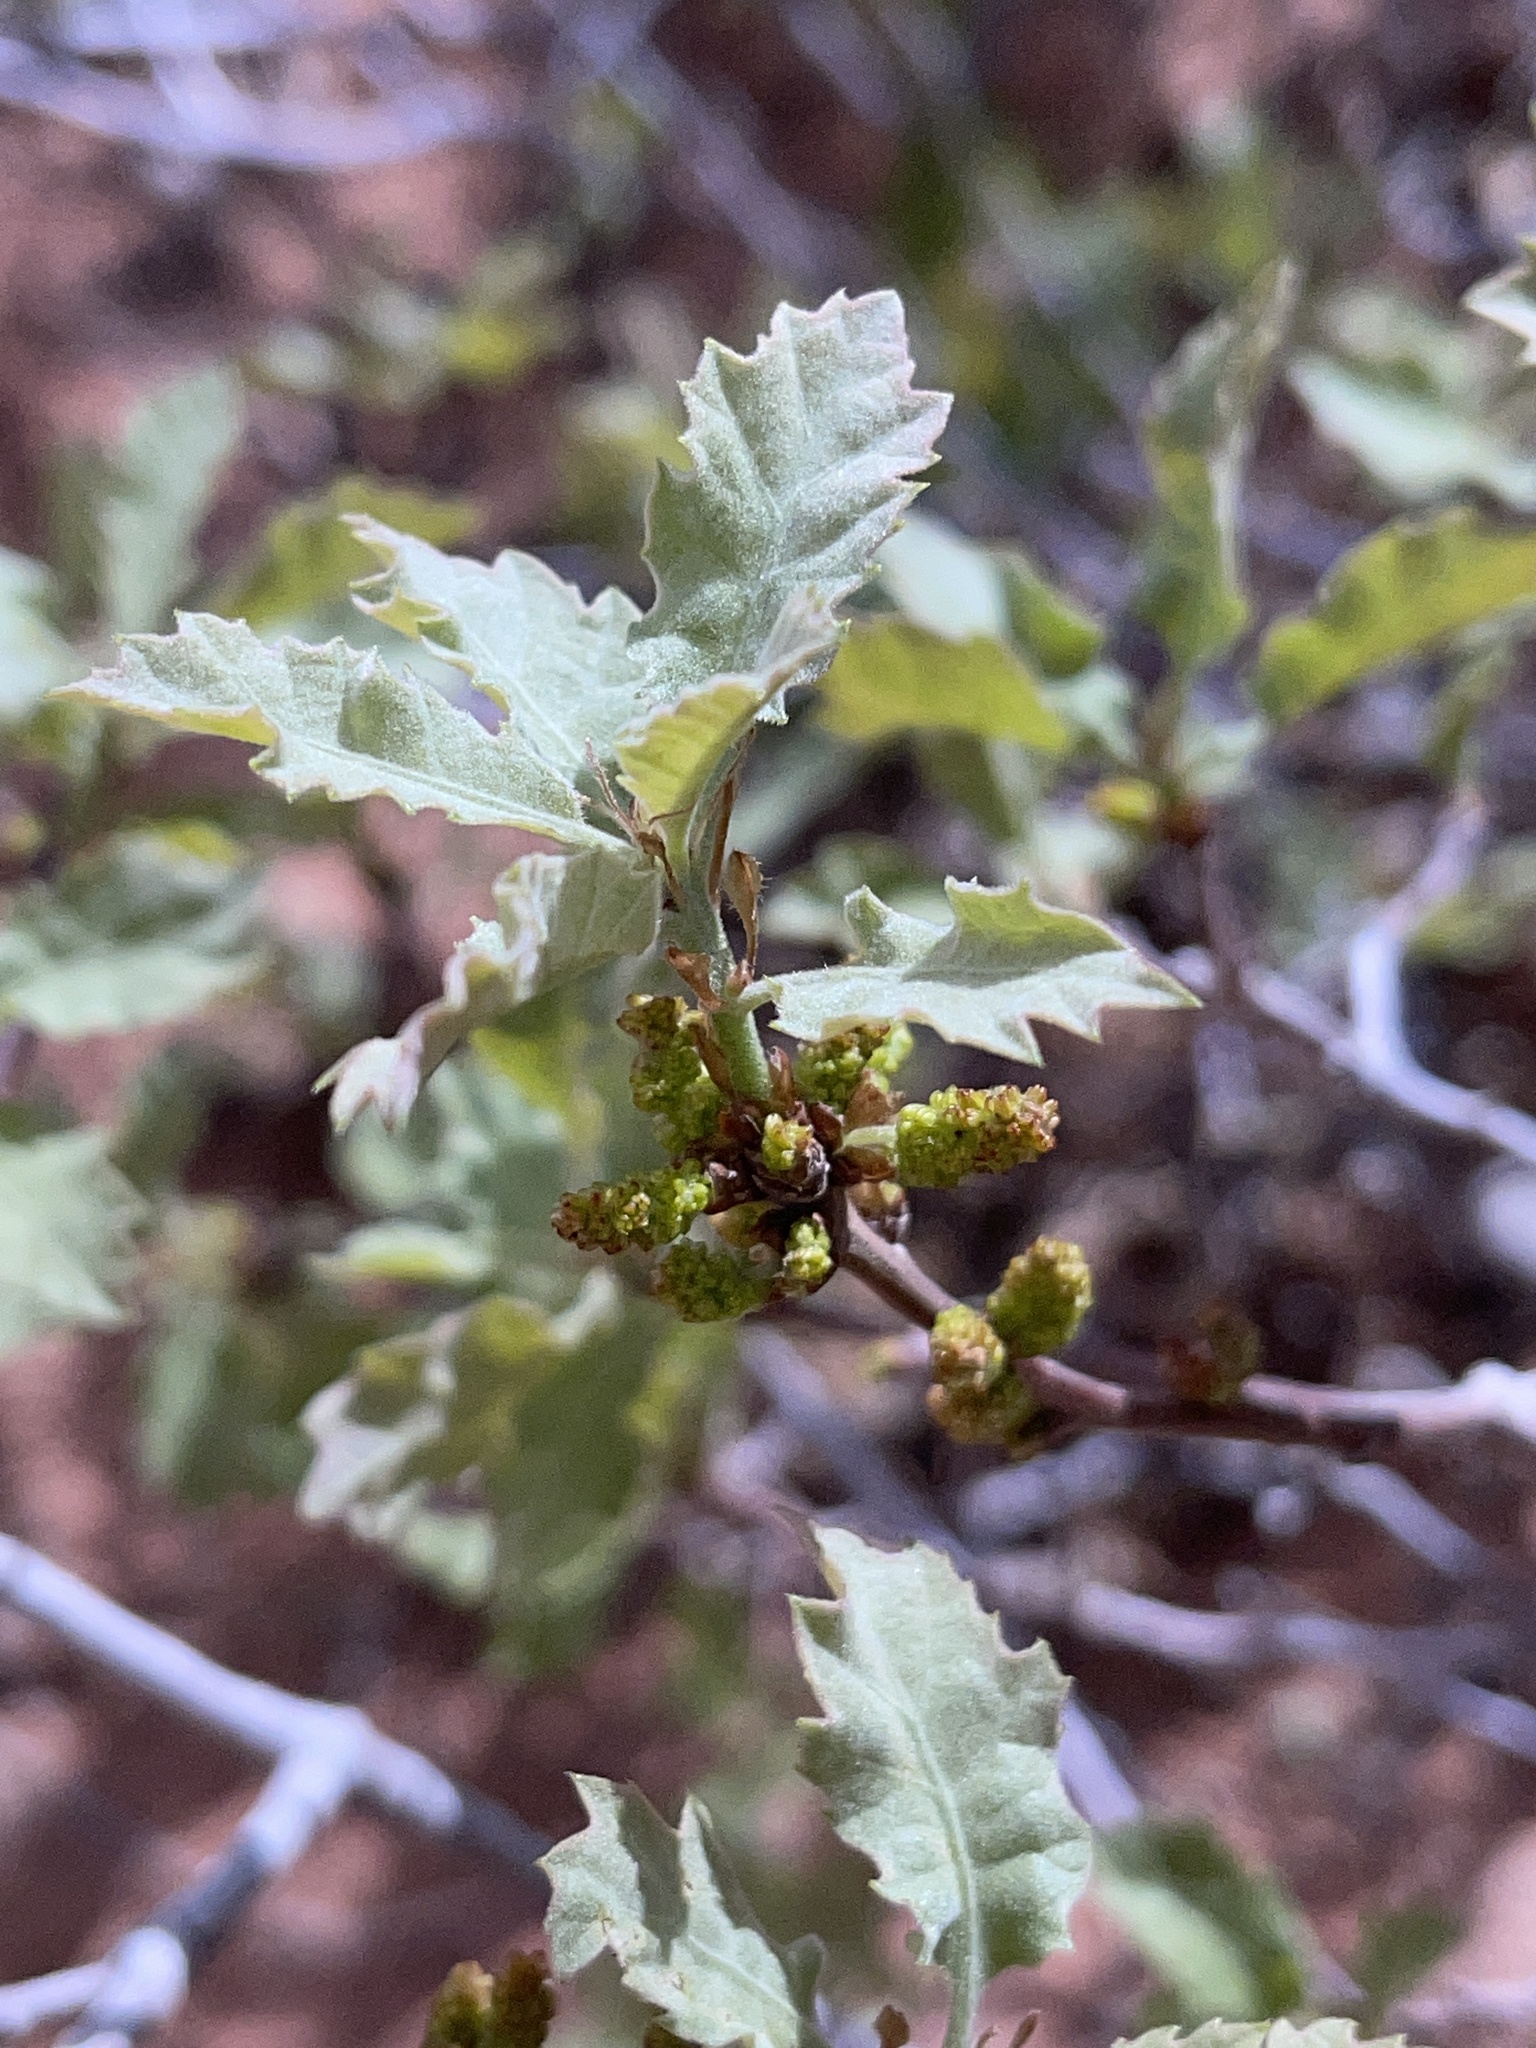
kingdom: Plantae
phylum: Tracheophyta
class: Magnoliopsida
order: Fagales
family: Fagaceae
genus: Quercus
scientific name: Quercus welshii
